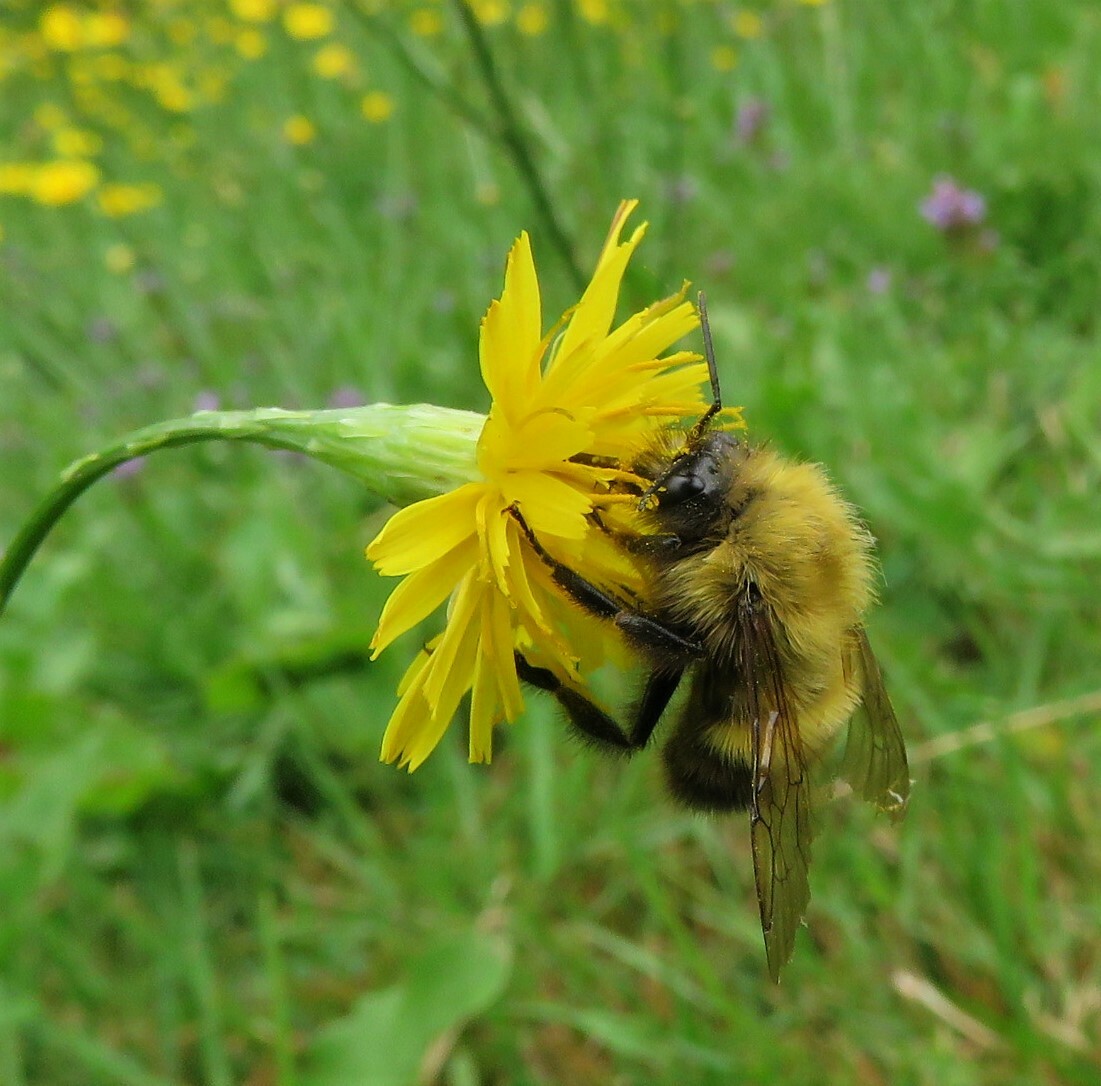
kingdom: Animalia
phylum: Arthropoda
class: Insecta
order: Hymenoptera
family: Apidae
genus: Bombus
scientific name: Bombus perplexus
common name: Confusing bumble bee
